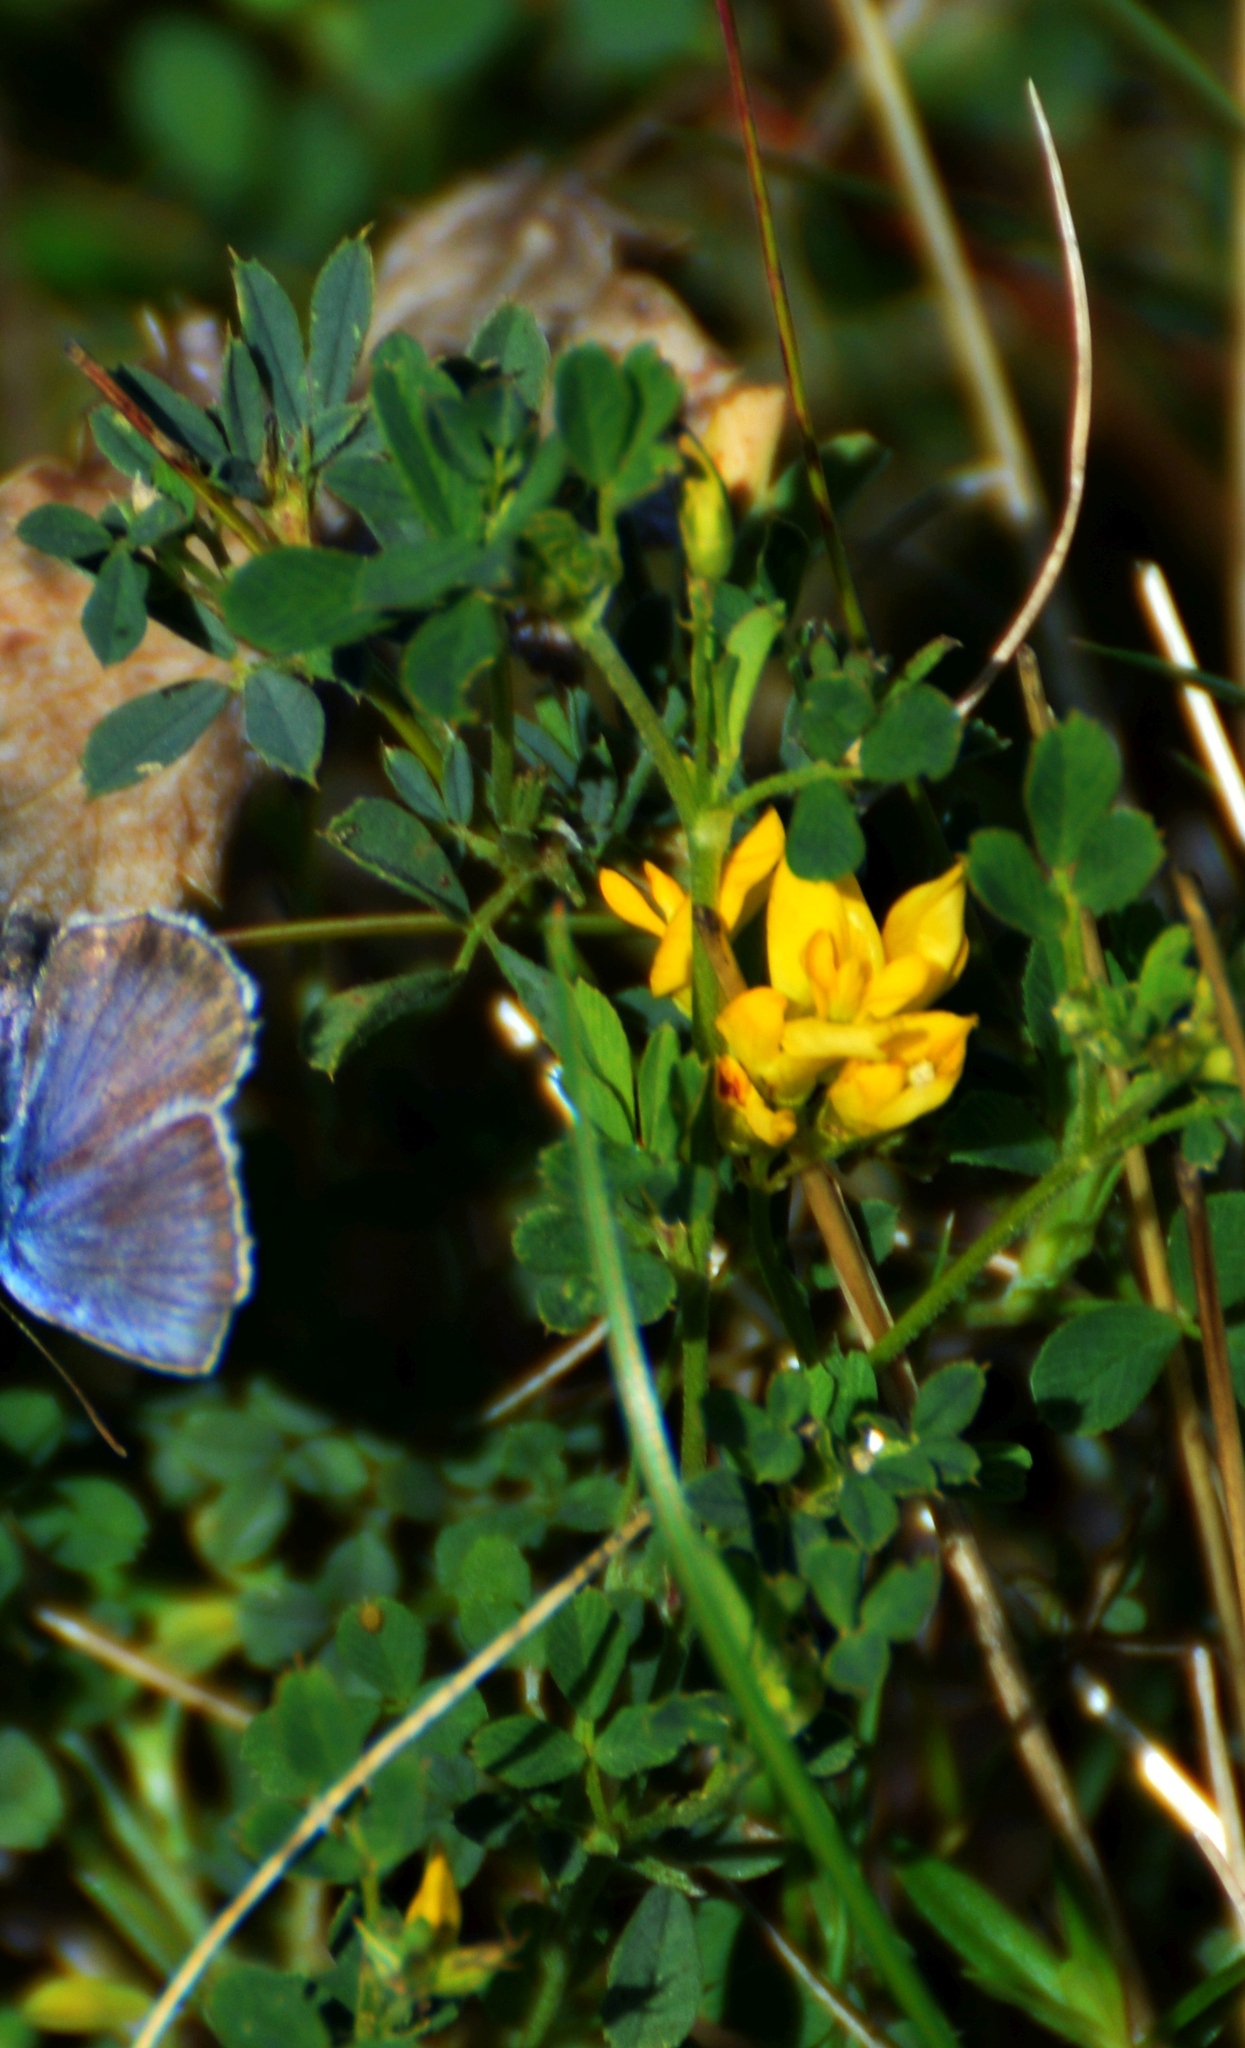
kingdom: Plantae
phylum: Tracheophyta
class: Magnoliopsida
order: Fabales
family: Fabaceae
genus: Medicago
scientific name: Medicago falcata
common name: Sickle medick
